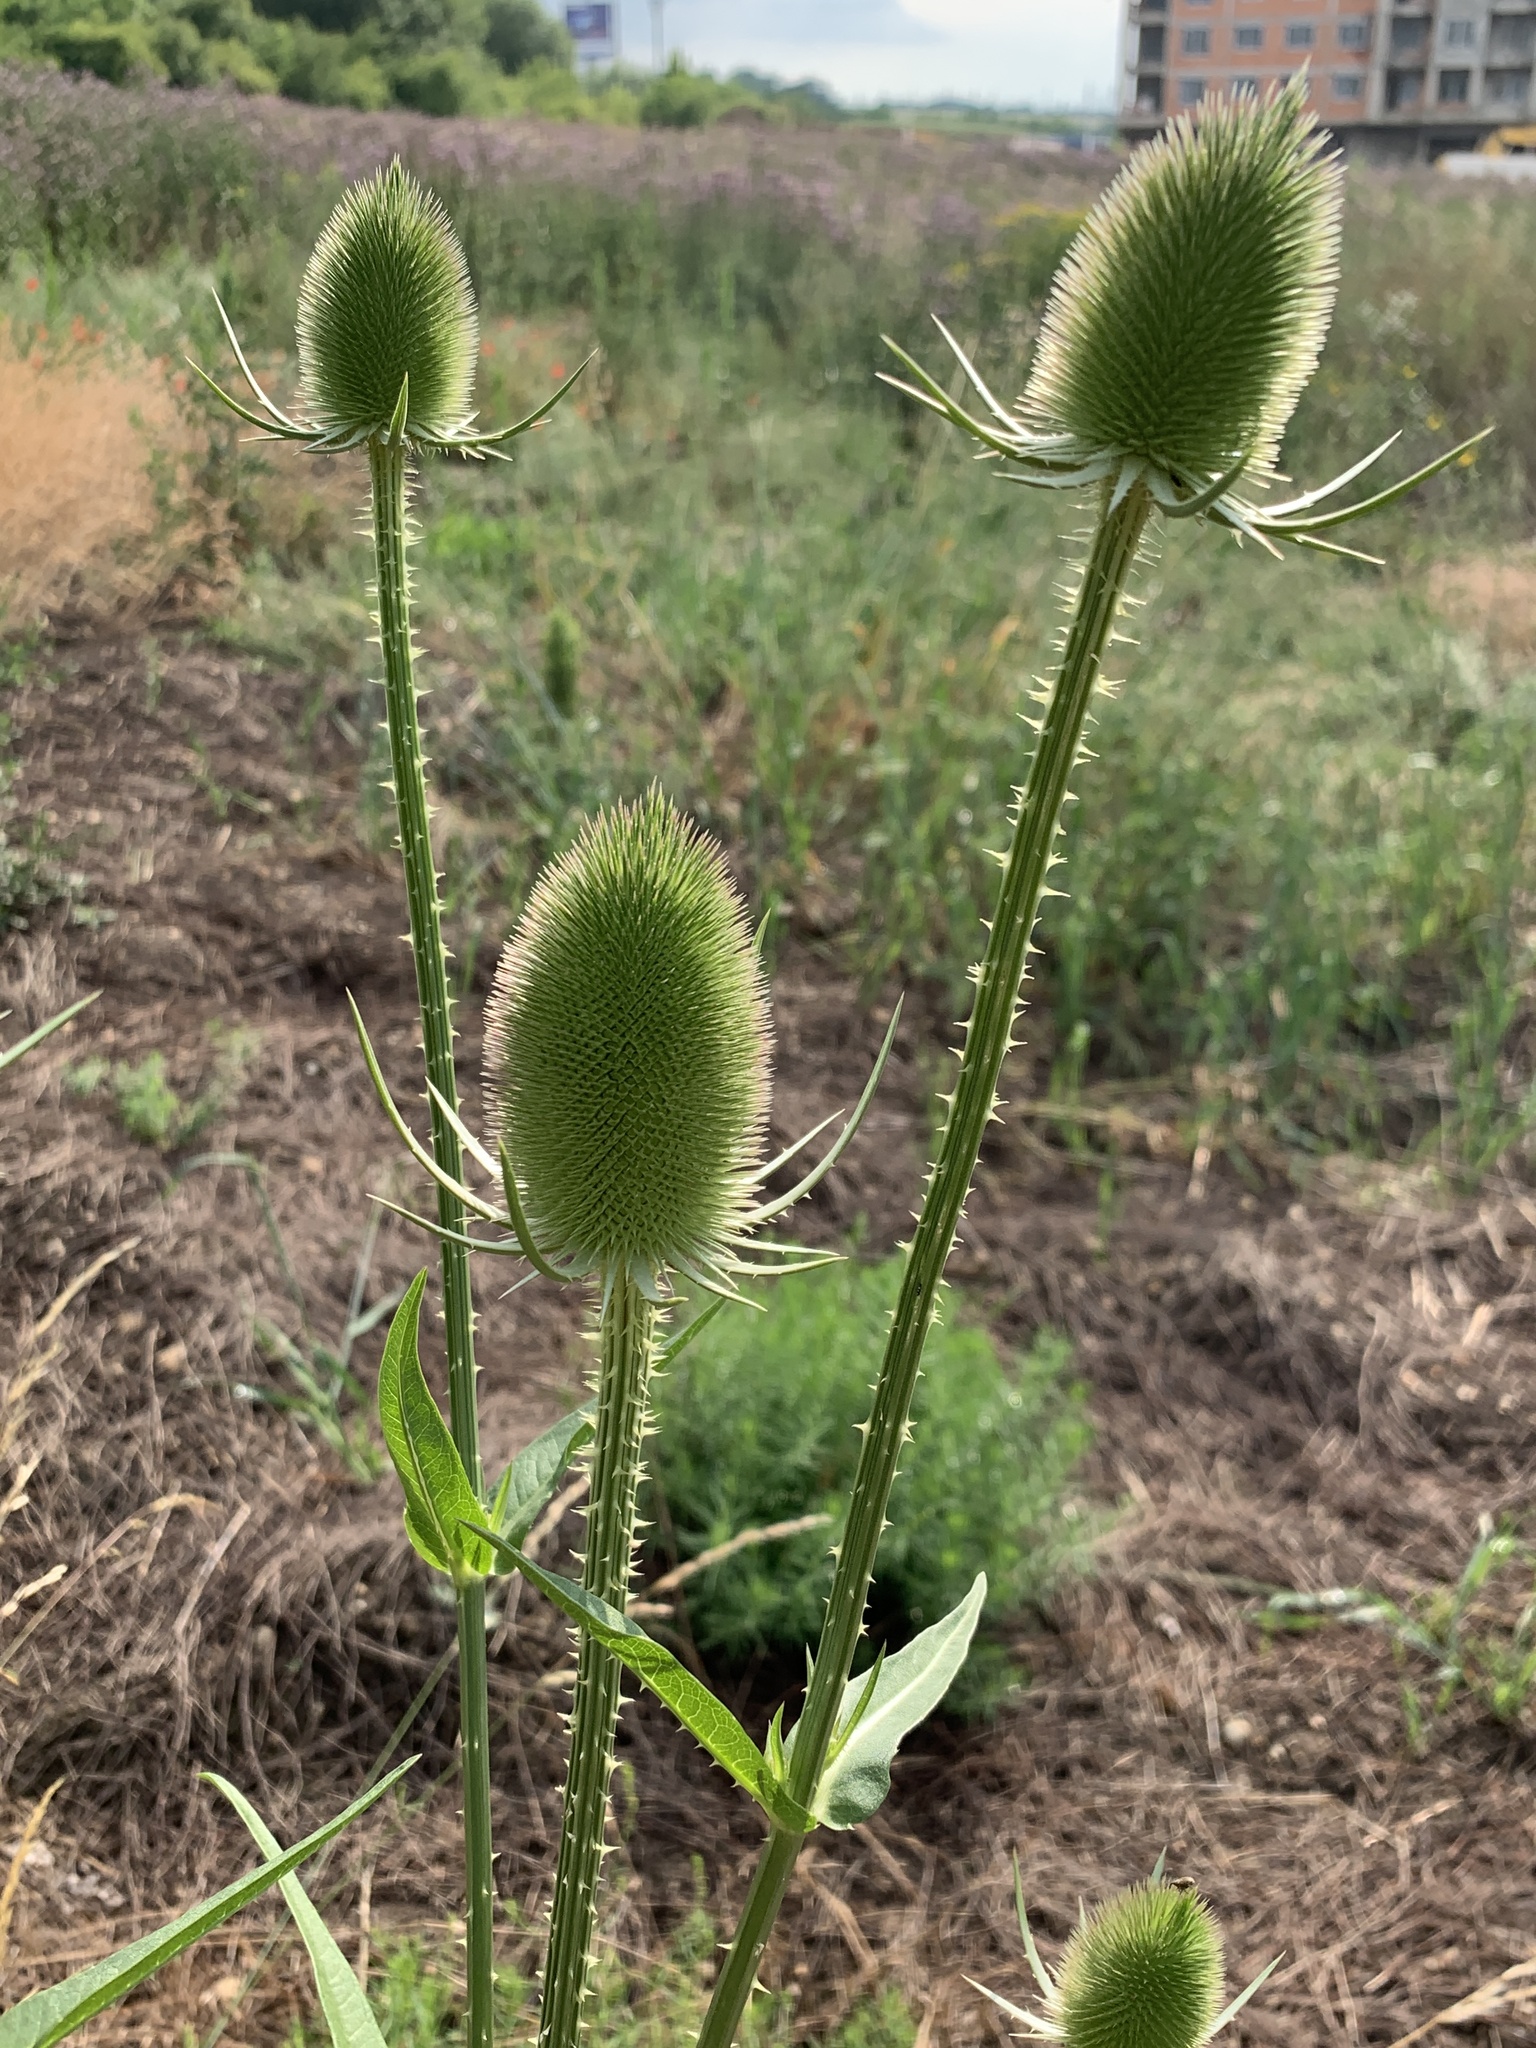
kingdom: Plantae
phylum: Tracheophyta
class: Magnoliopsida
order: Dipsacales
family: Caprifoliaceae
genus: Dipsacus
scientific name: Dipsacus fullonum
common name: Teasel
